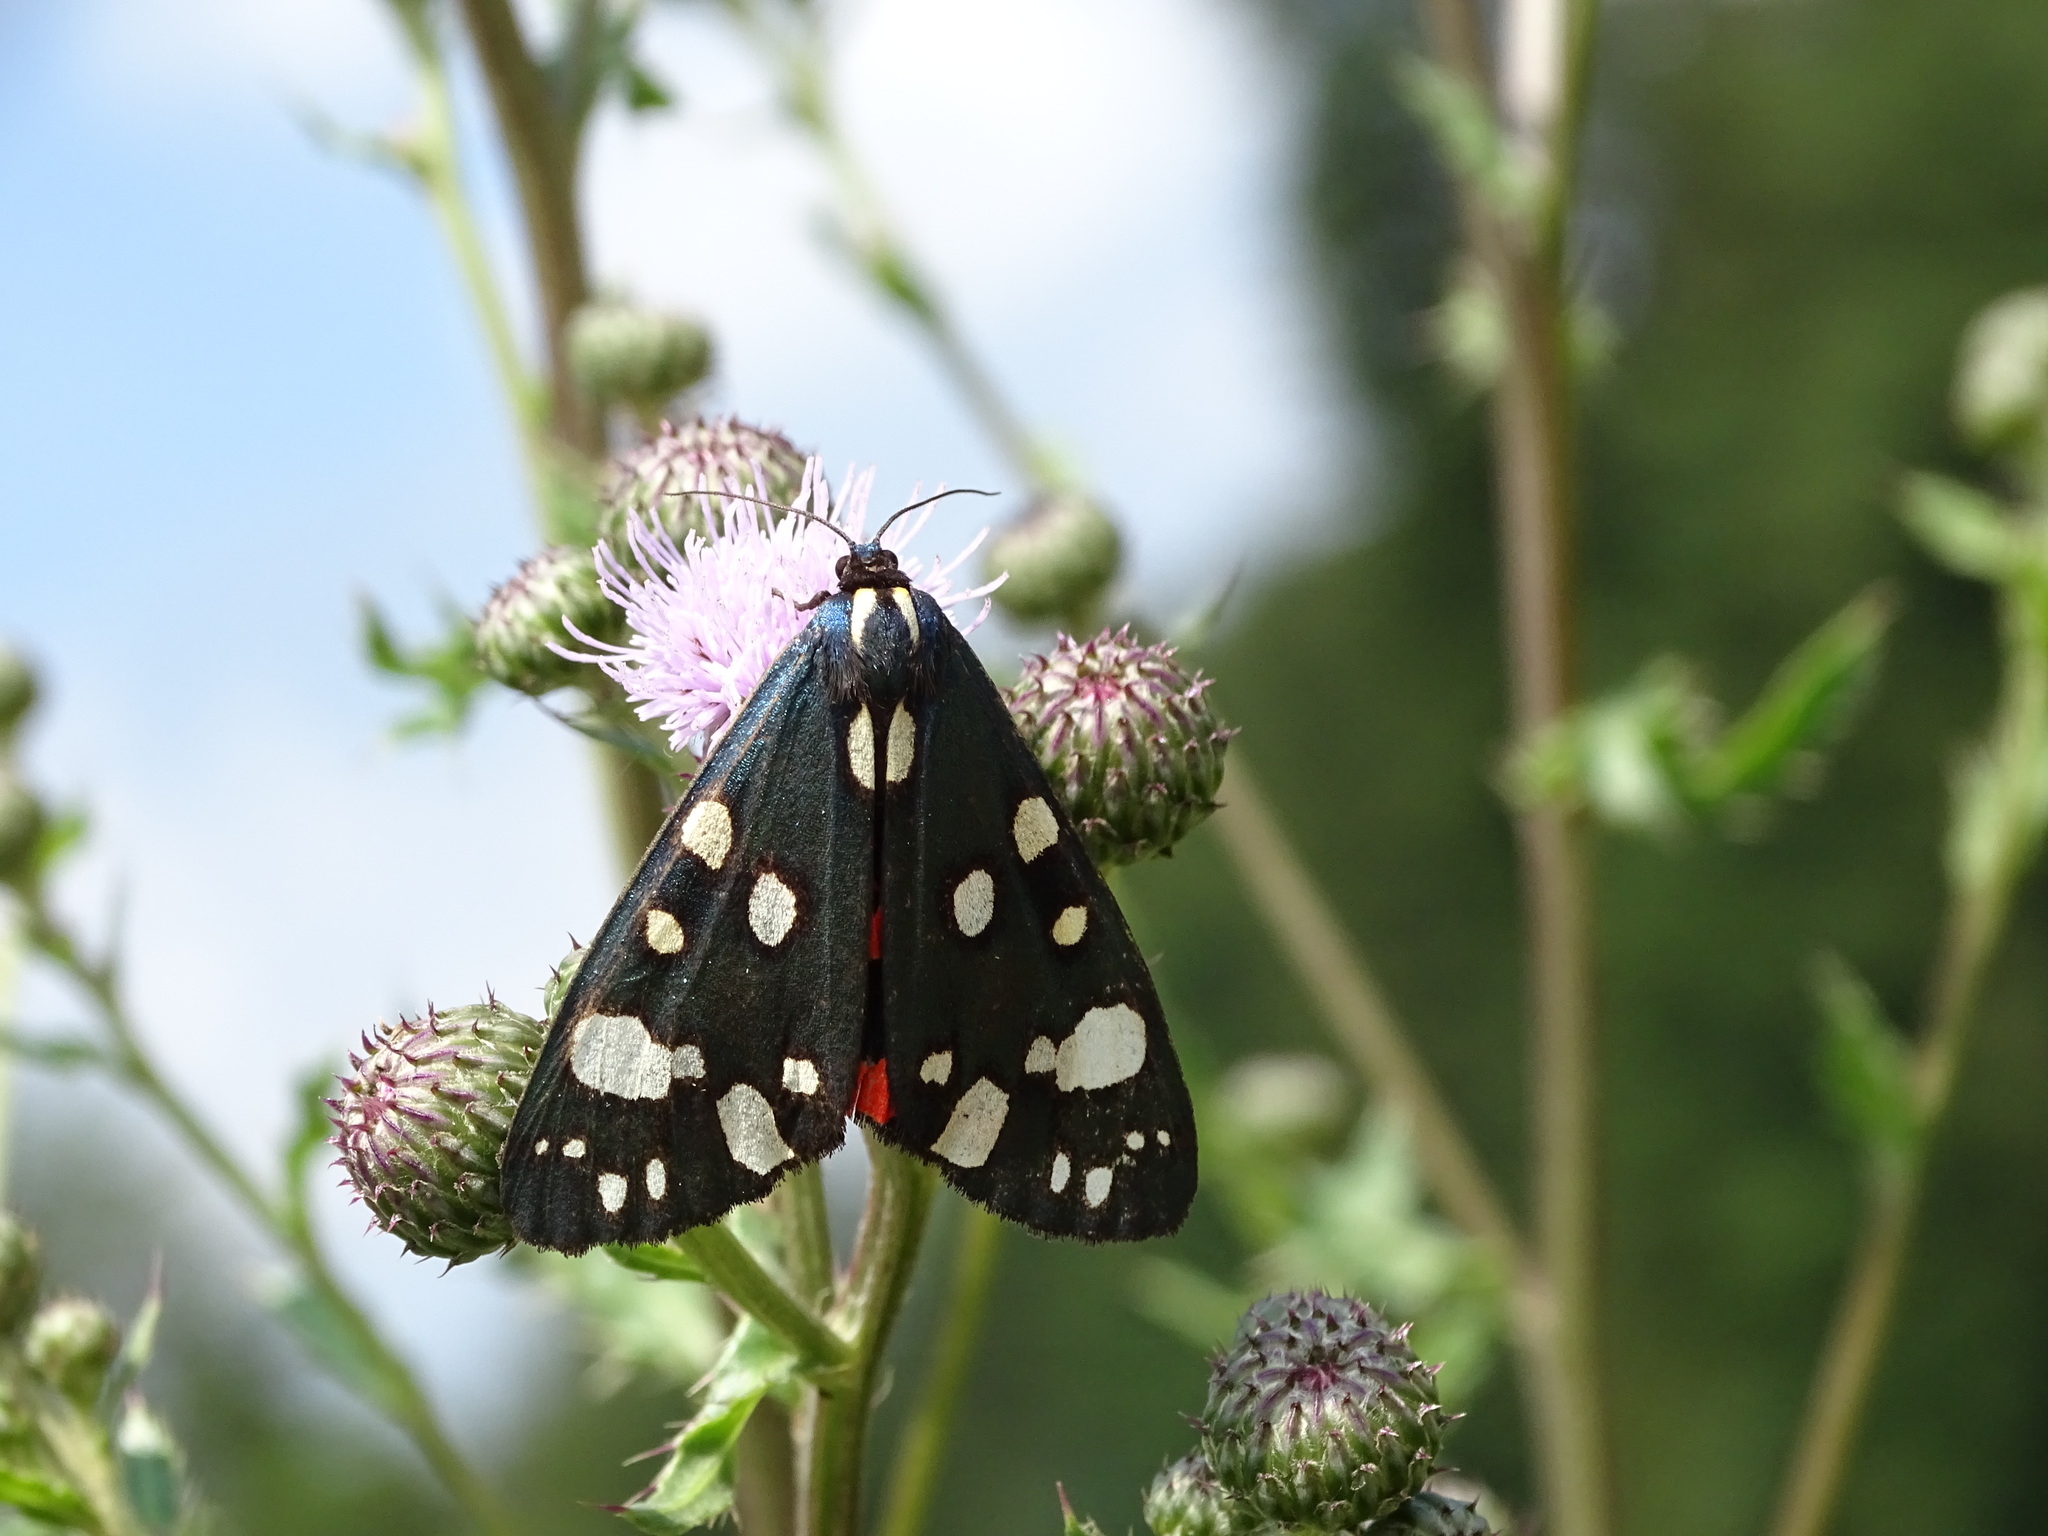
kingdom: Animalia
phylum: Arthropoda
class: Insecta
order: Lepidoptera
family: Erebidae
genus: Callimorpha
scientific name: Callimorpha dominula
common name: Scarlet tiger
